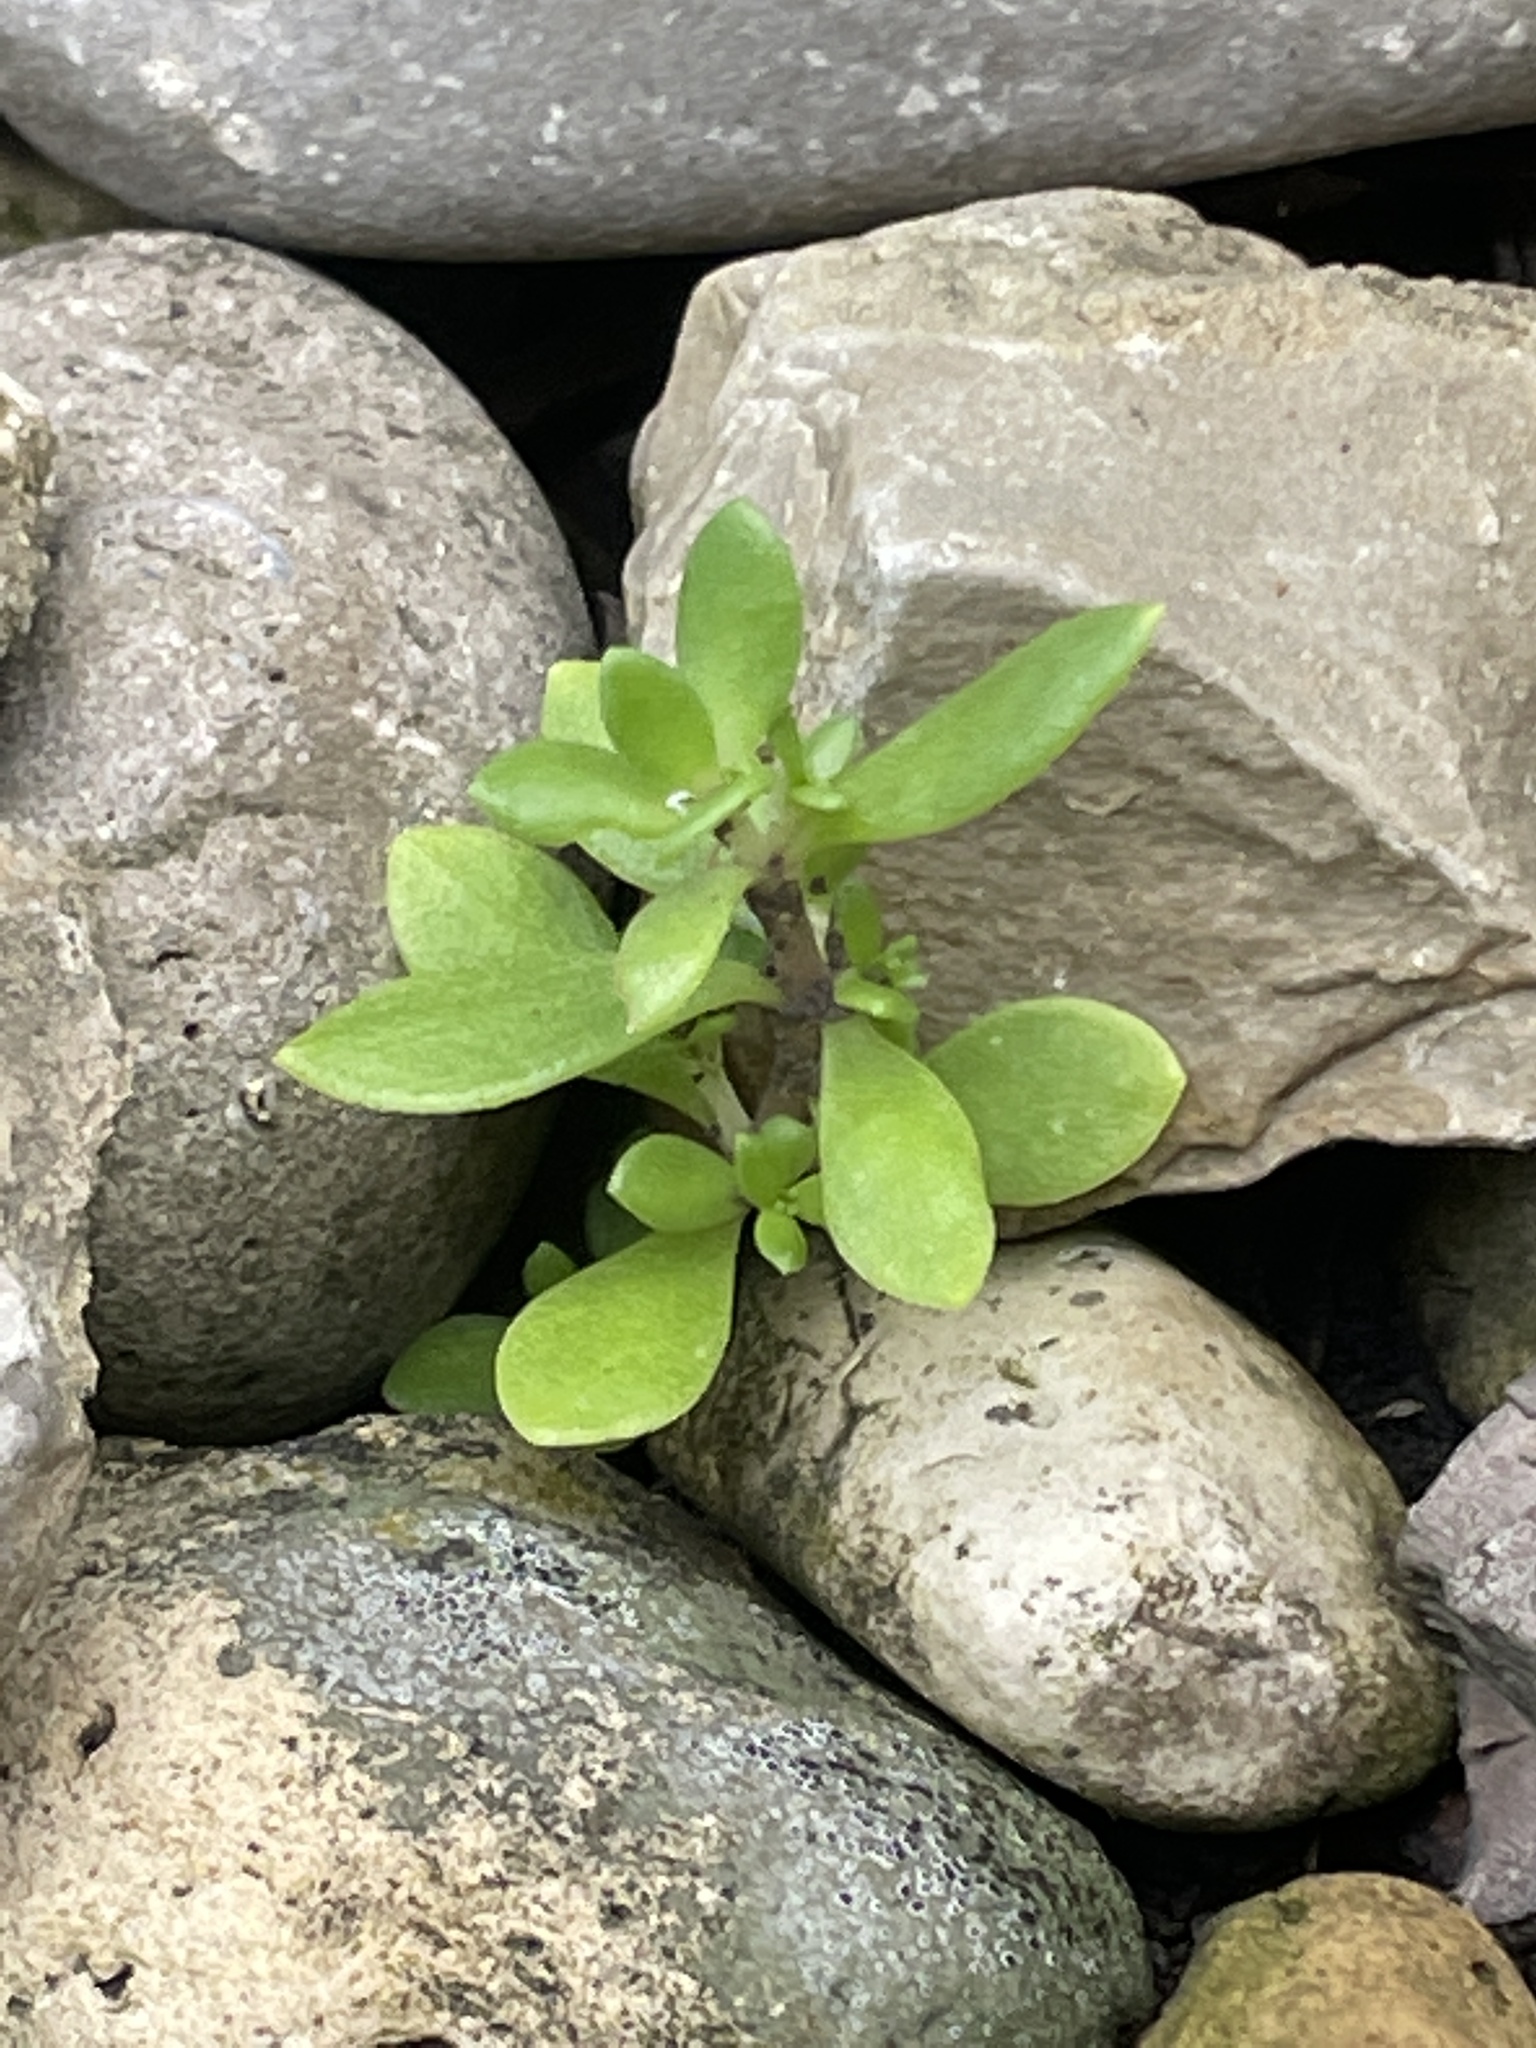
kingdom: Plantae
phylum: Tracheophyta
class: Magnoliopsida
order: Saxifragales
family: Crassulaceae
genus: Sedum
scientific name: Sedum sarmentosum
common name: Stringy stonecrop
